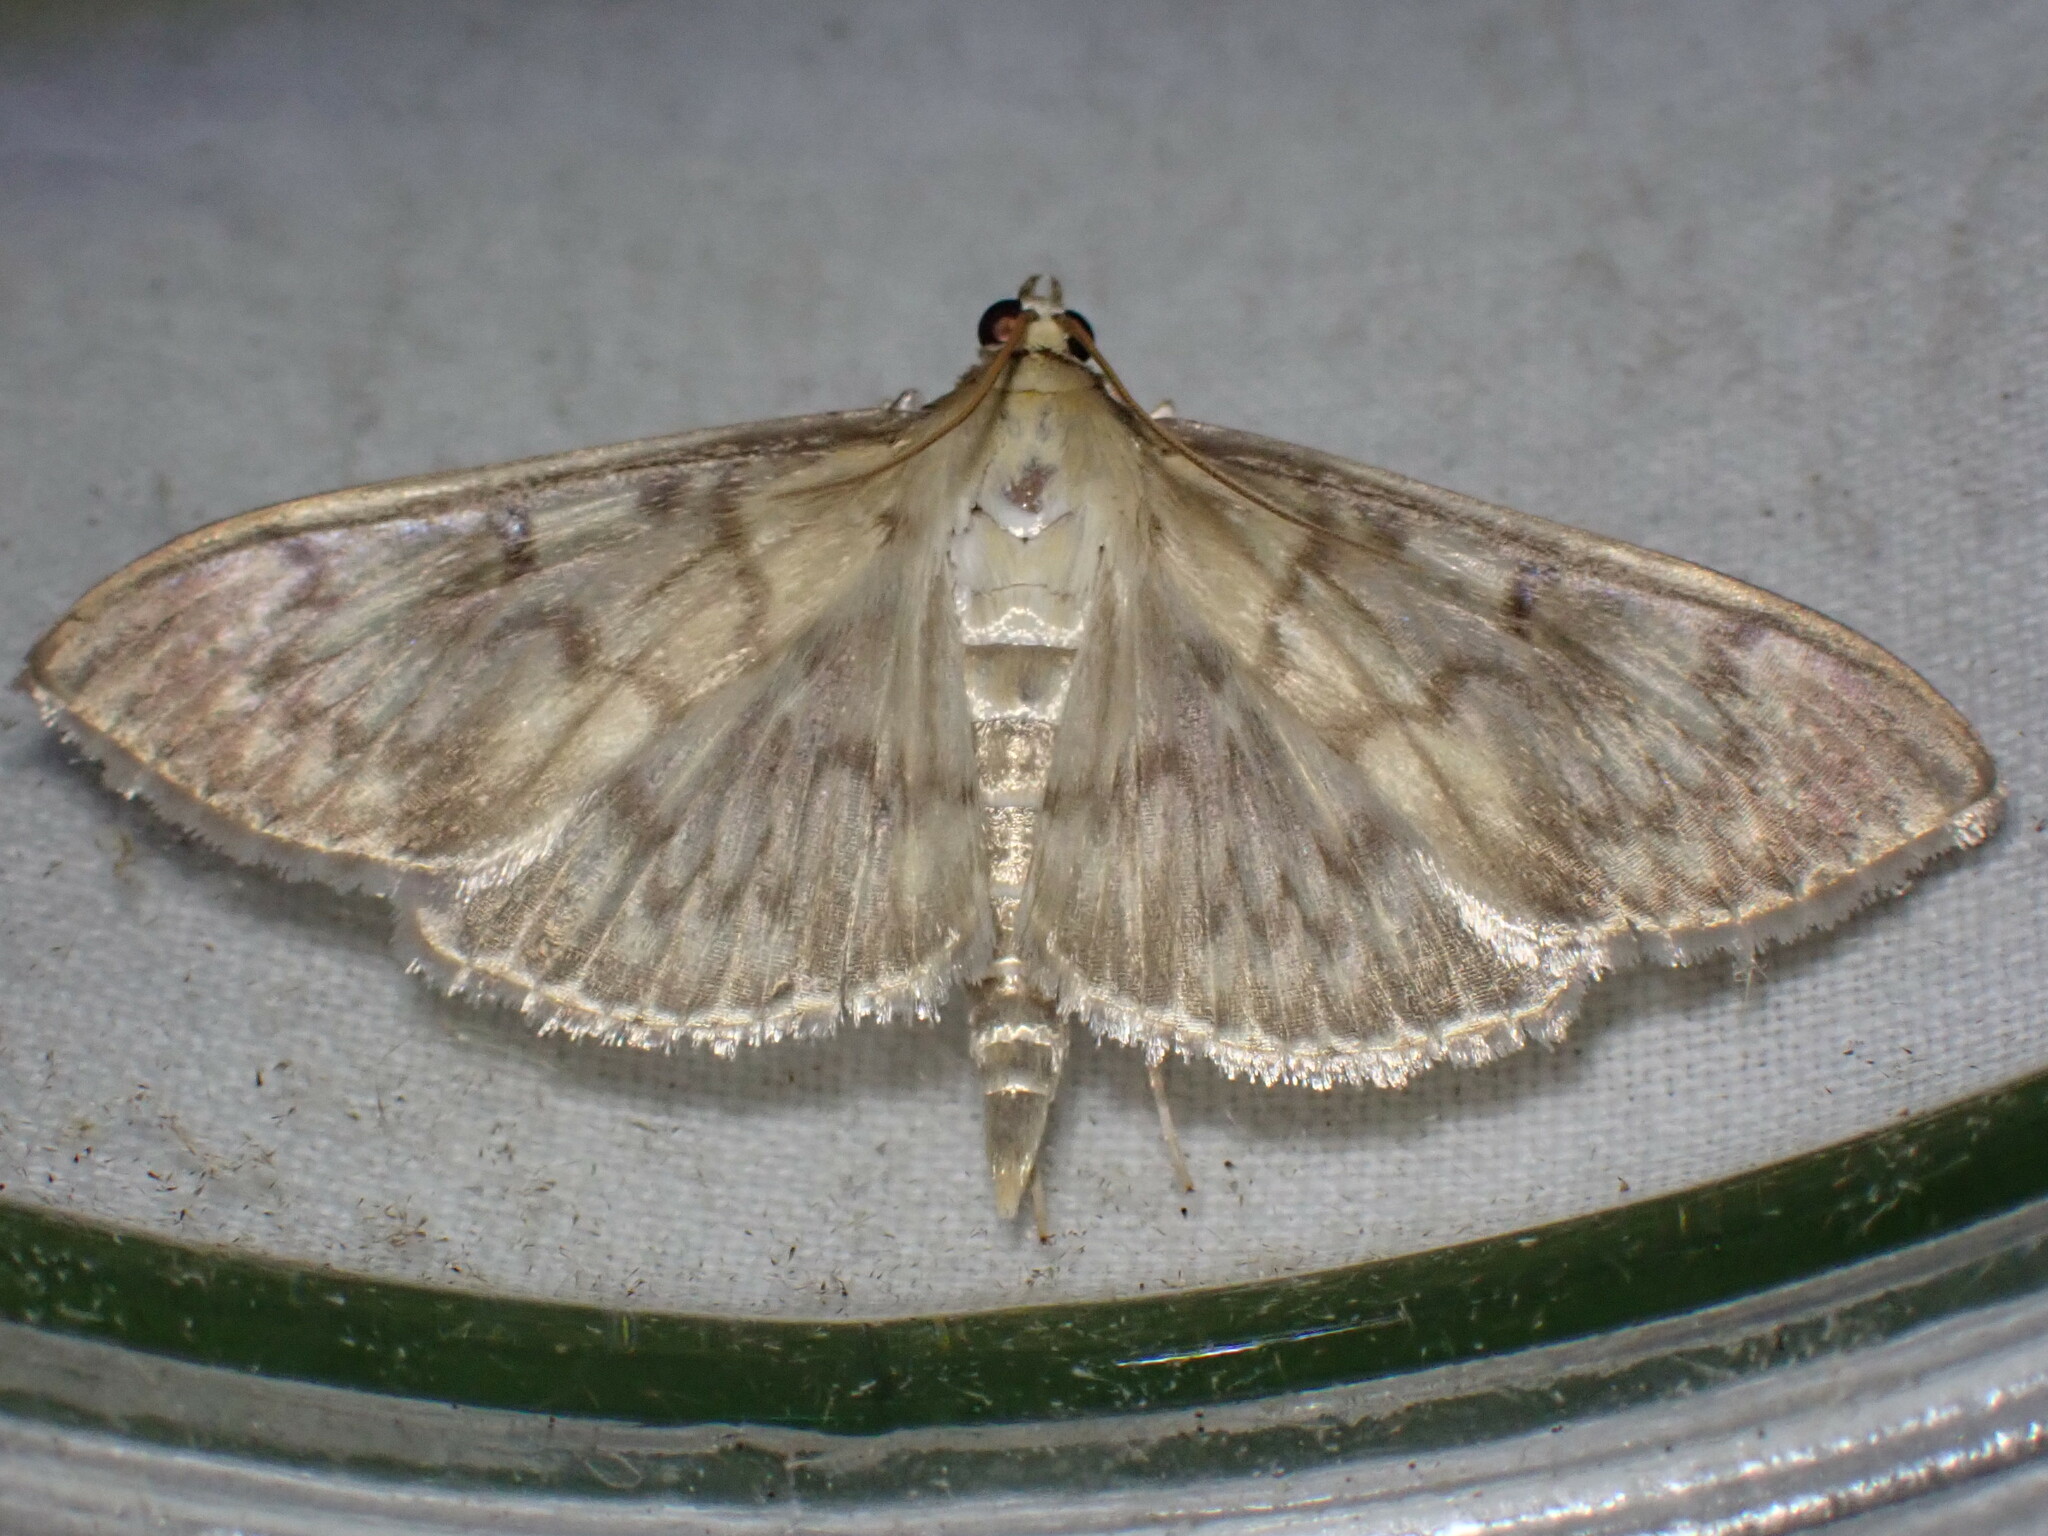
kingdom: Animalia
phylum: Arthropoda
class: Insecta
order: Lepidoptera
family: Crambidae
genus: Patania
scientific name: Patania ruralis
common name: Mother of pearl
